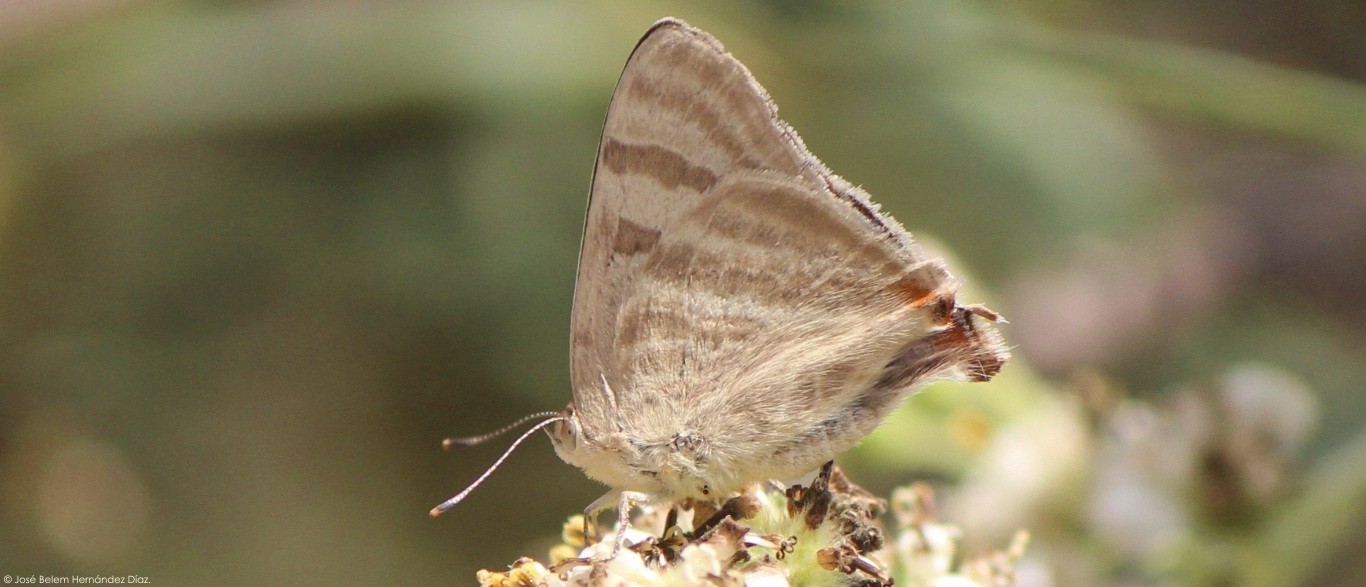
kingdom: Animalia
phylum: Arthropoda
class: Insecta
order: Lepidoptera
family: Lycaenidae
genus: Dolymorpha
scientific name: Dolymorpha jada
